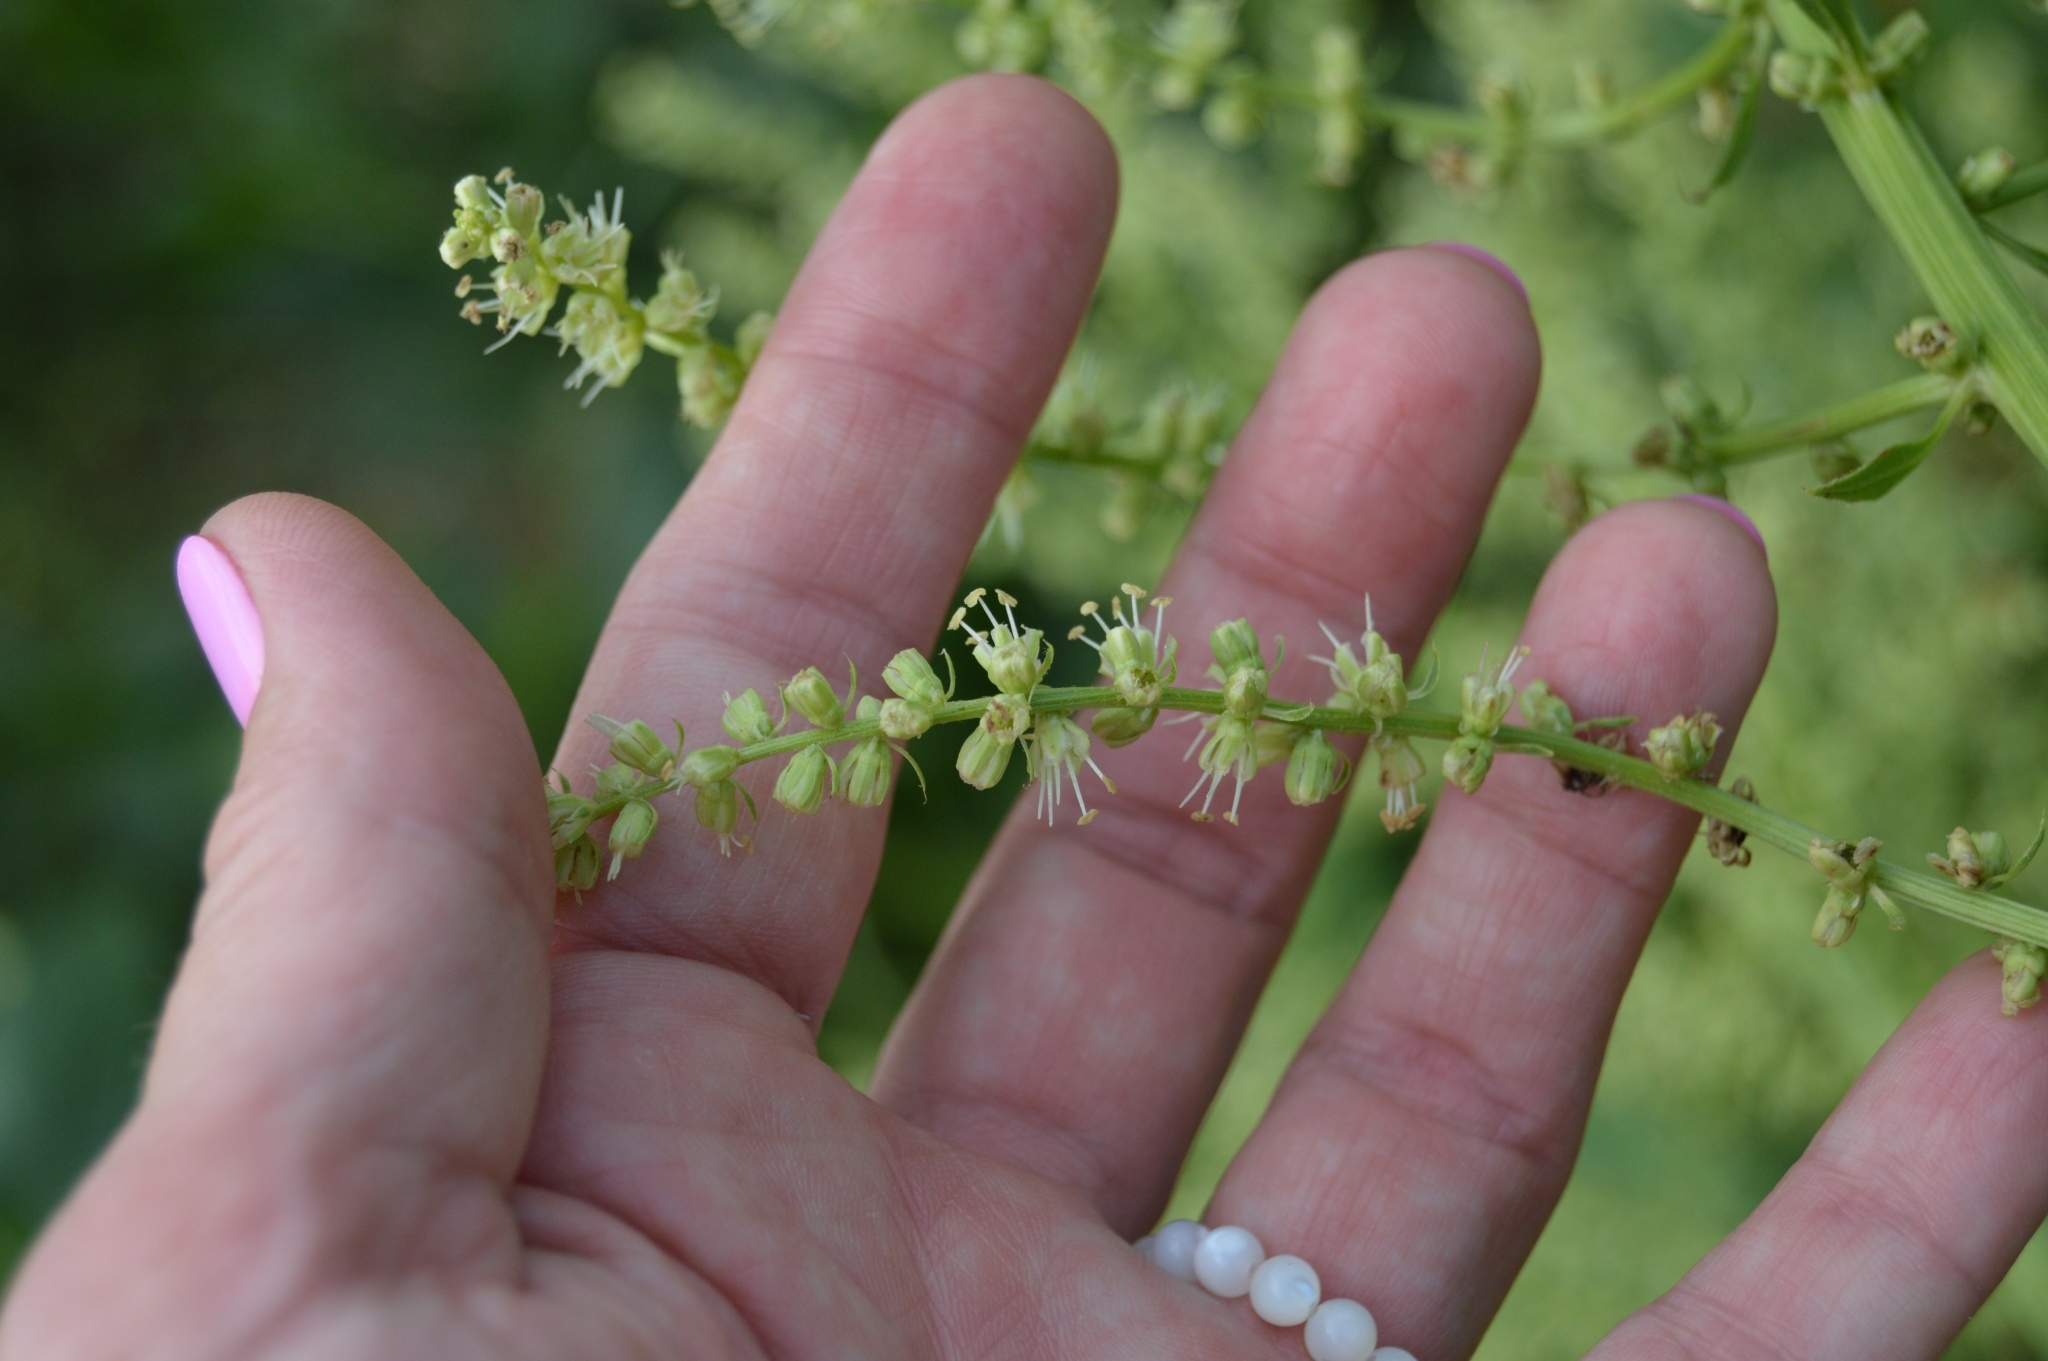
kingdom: Plantae
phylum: Tracheophyta
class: Magnoliopsida
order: Caryophyllales
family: Amaranthaceae
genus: Beta
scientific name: Beta trigyna
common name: Caucasian beet
